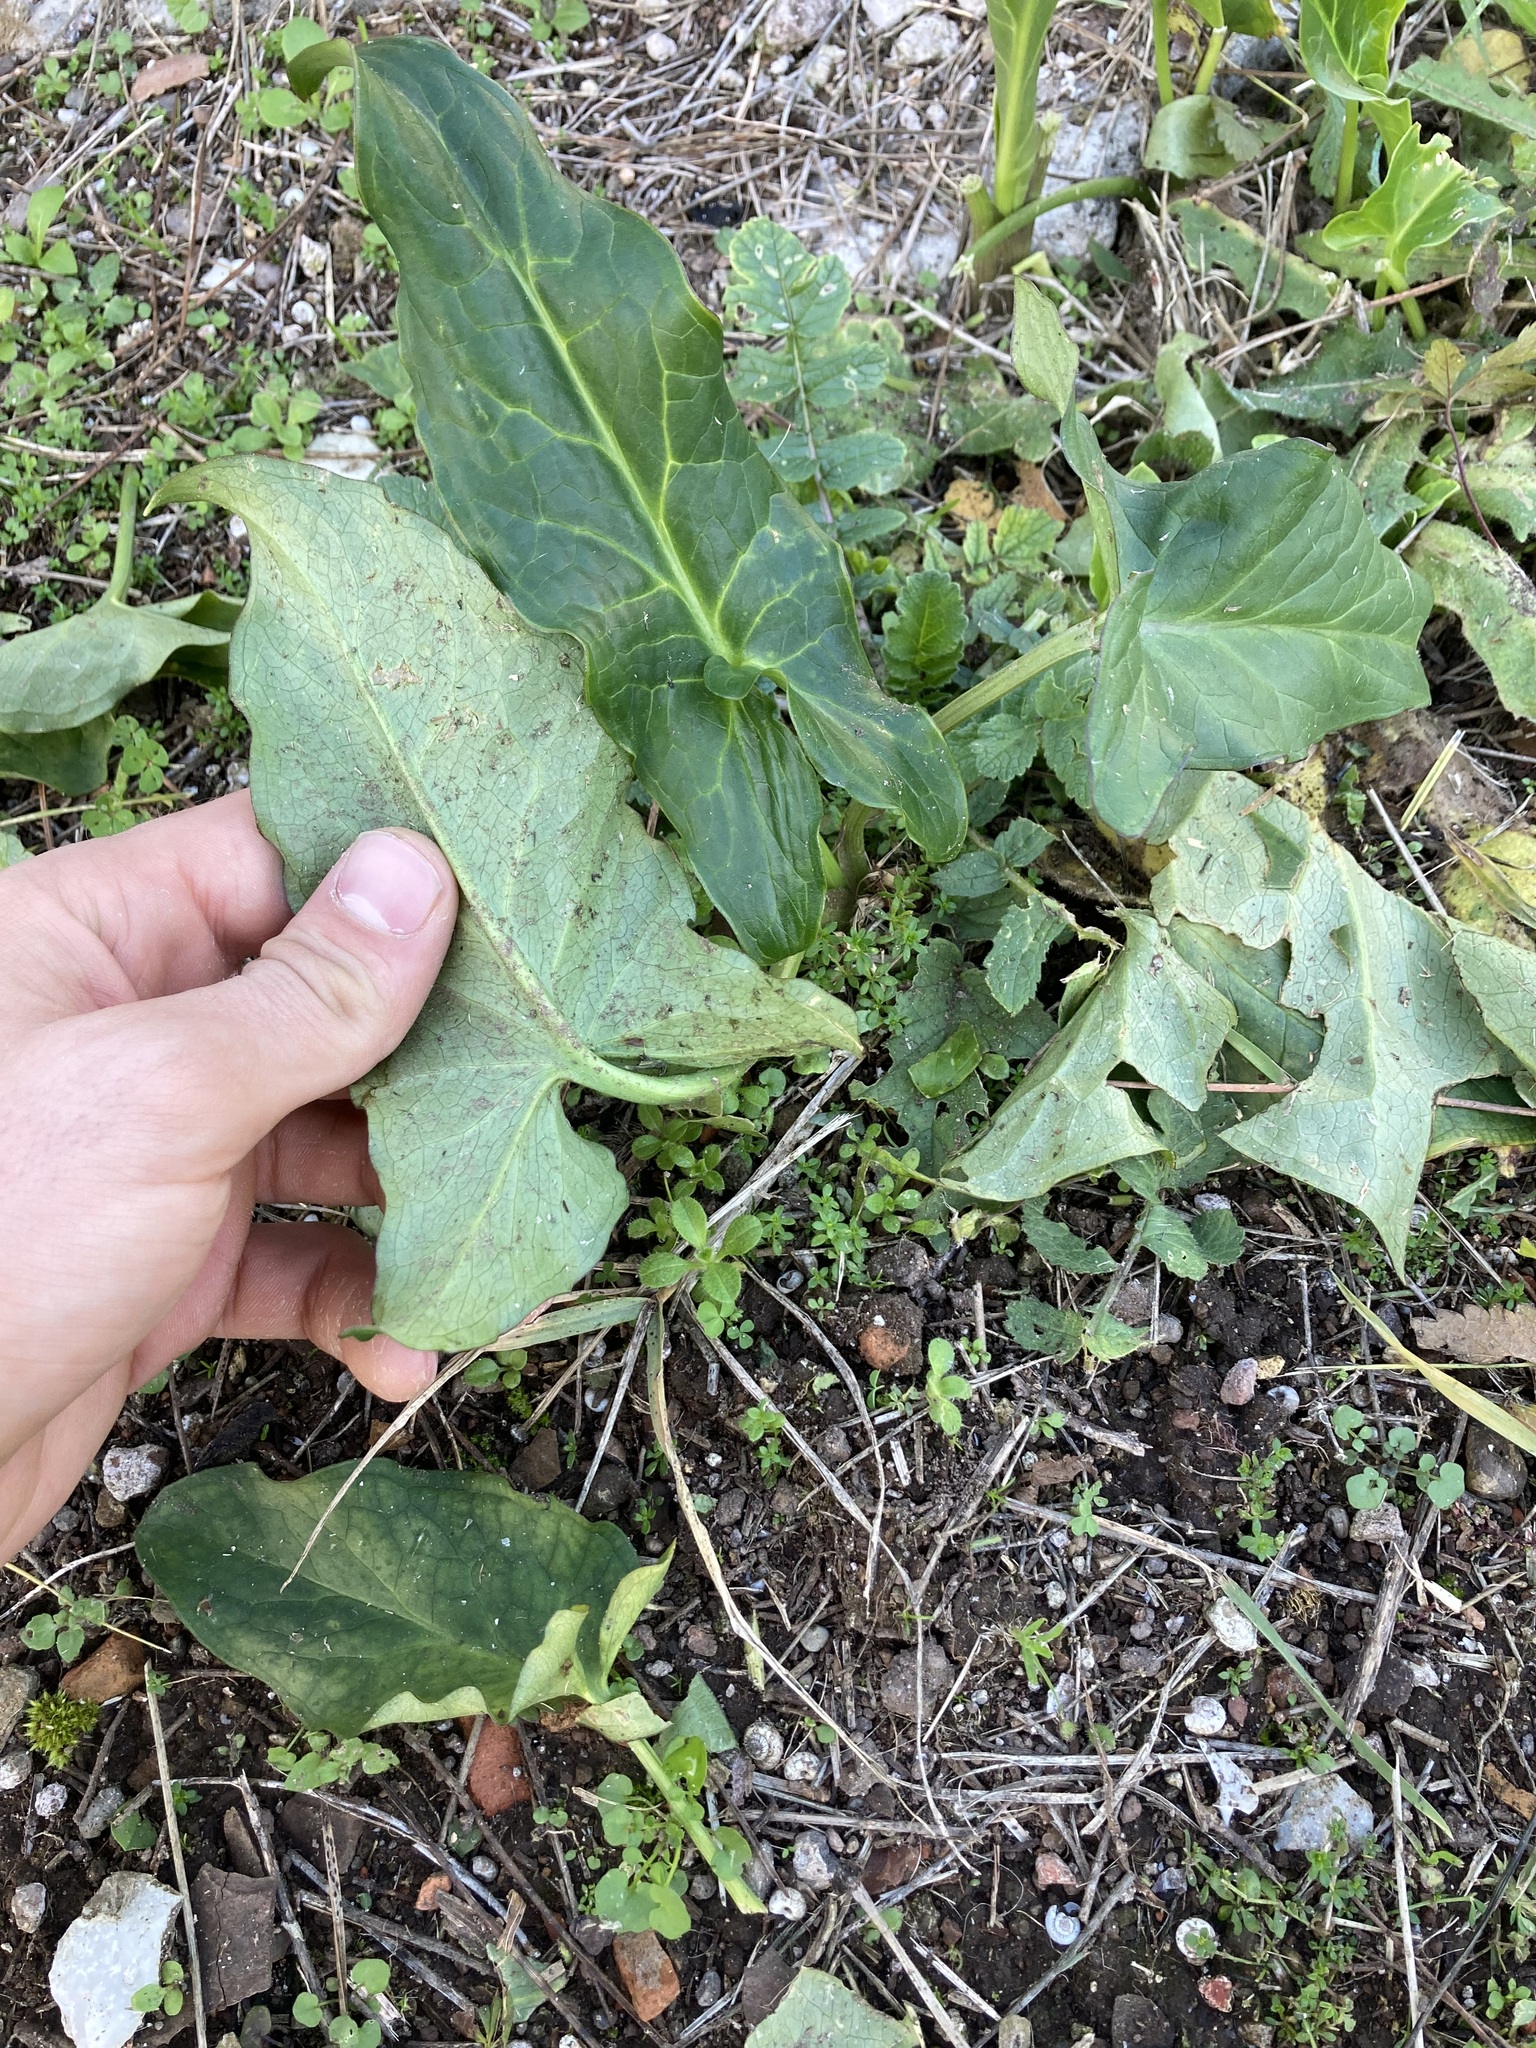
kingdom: Plantae
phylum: Tracheophyta
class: Liliopsida
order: Alismatales
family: Araceae
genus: Arum
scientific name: Arum italicum
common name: Italian lords-and-ladies
